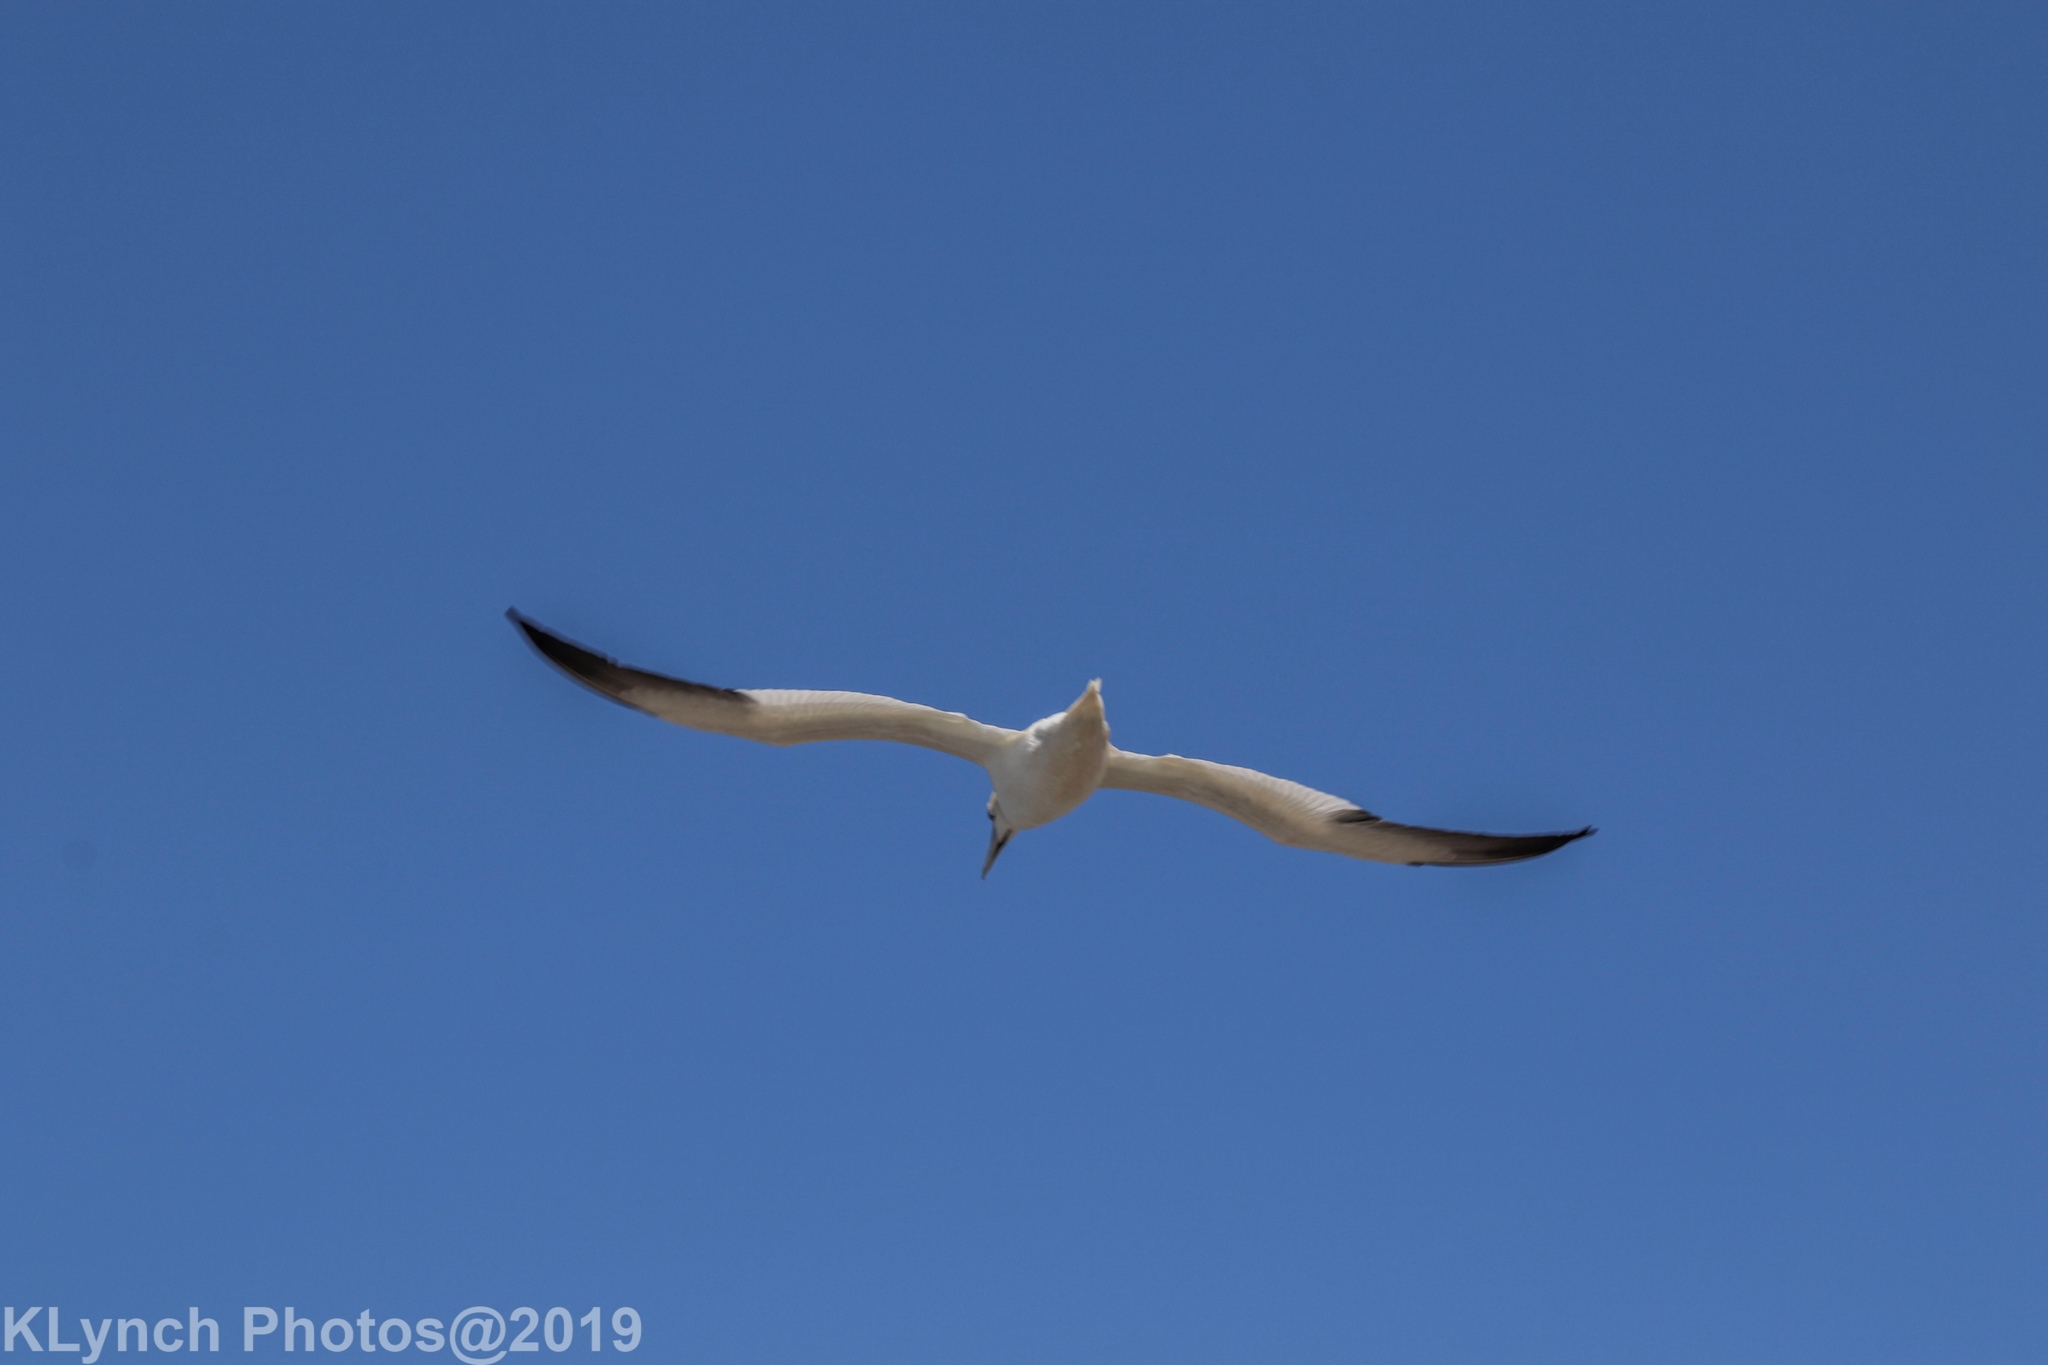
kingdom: Animalia
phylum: Chordata
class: Aves
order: Suliformes
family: Sulidae
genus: Morus
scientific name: Morus bassanus
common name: Northern gannet
